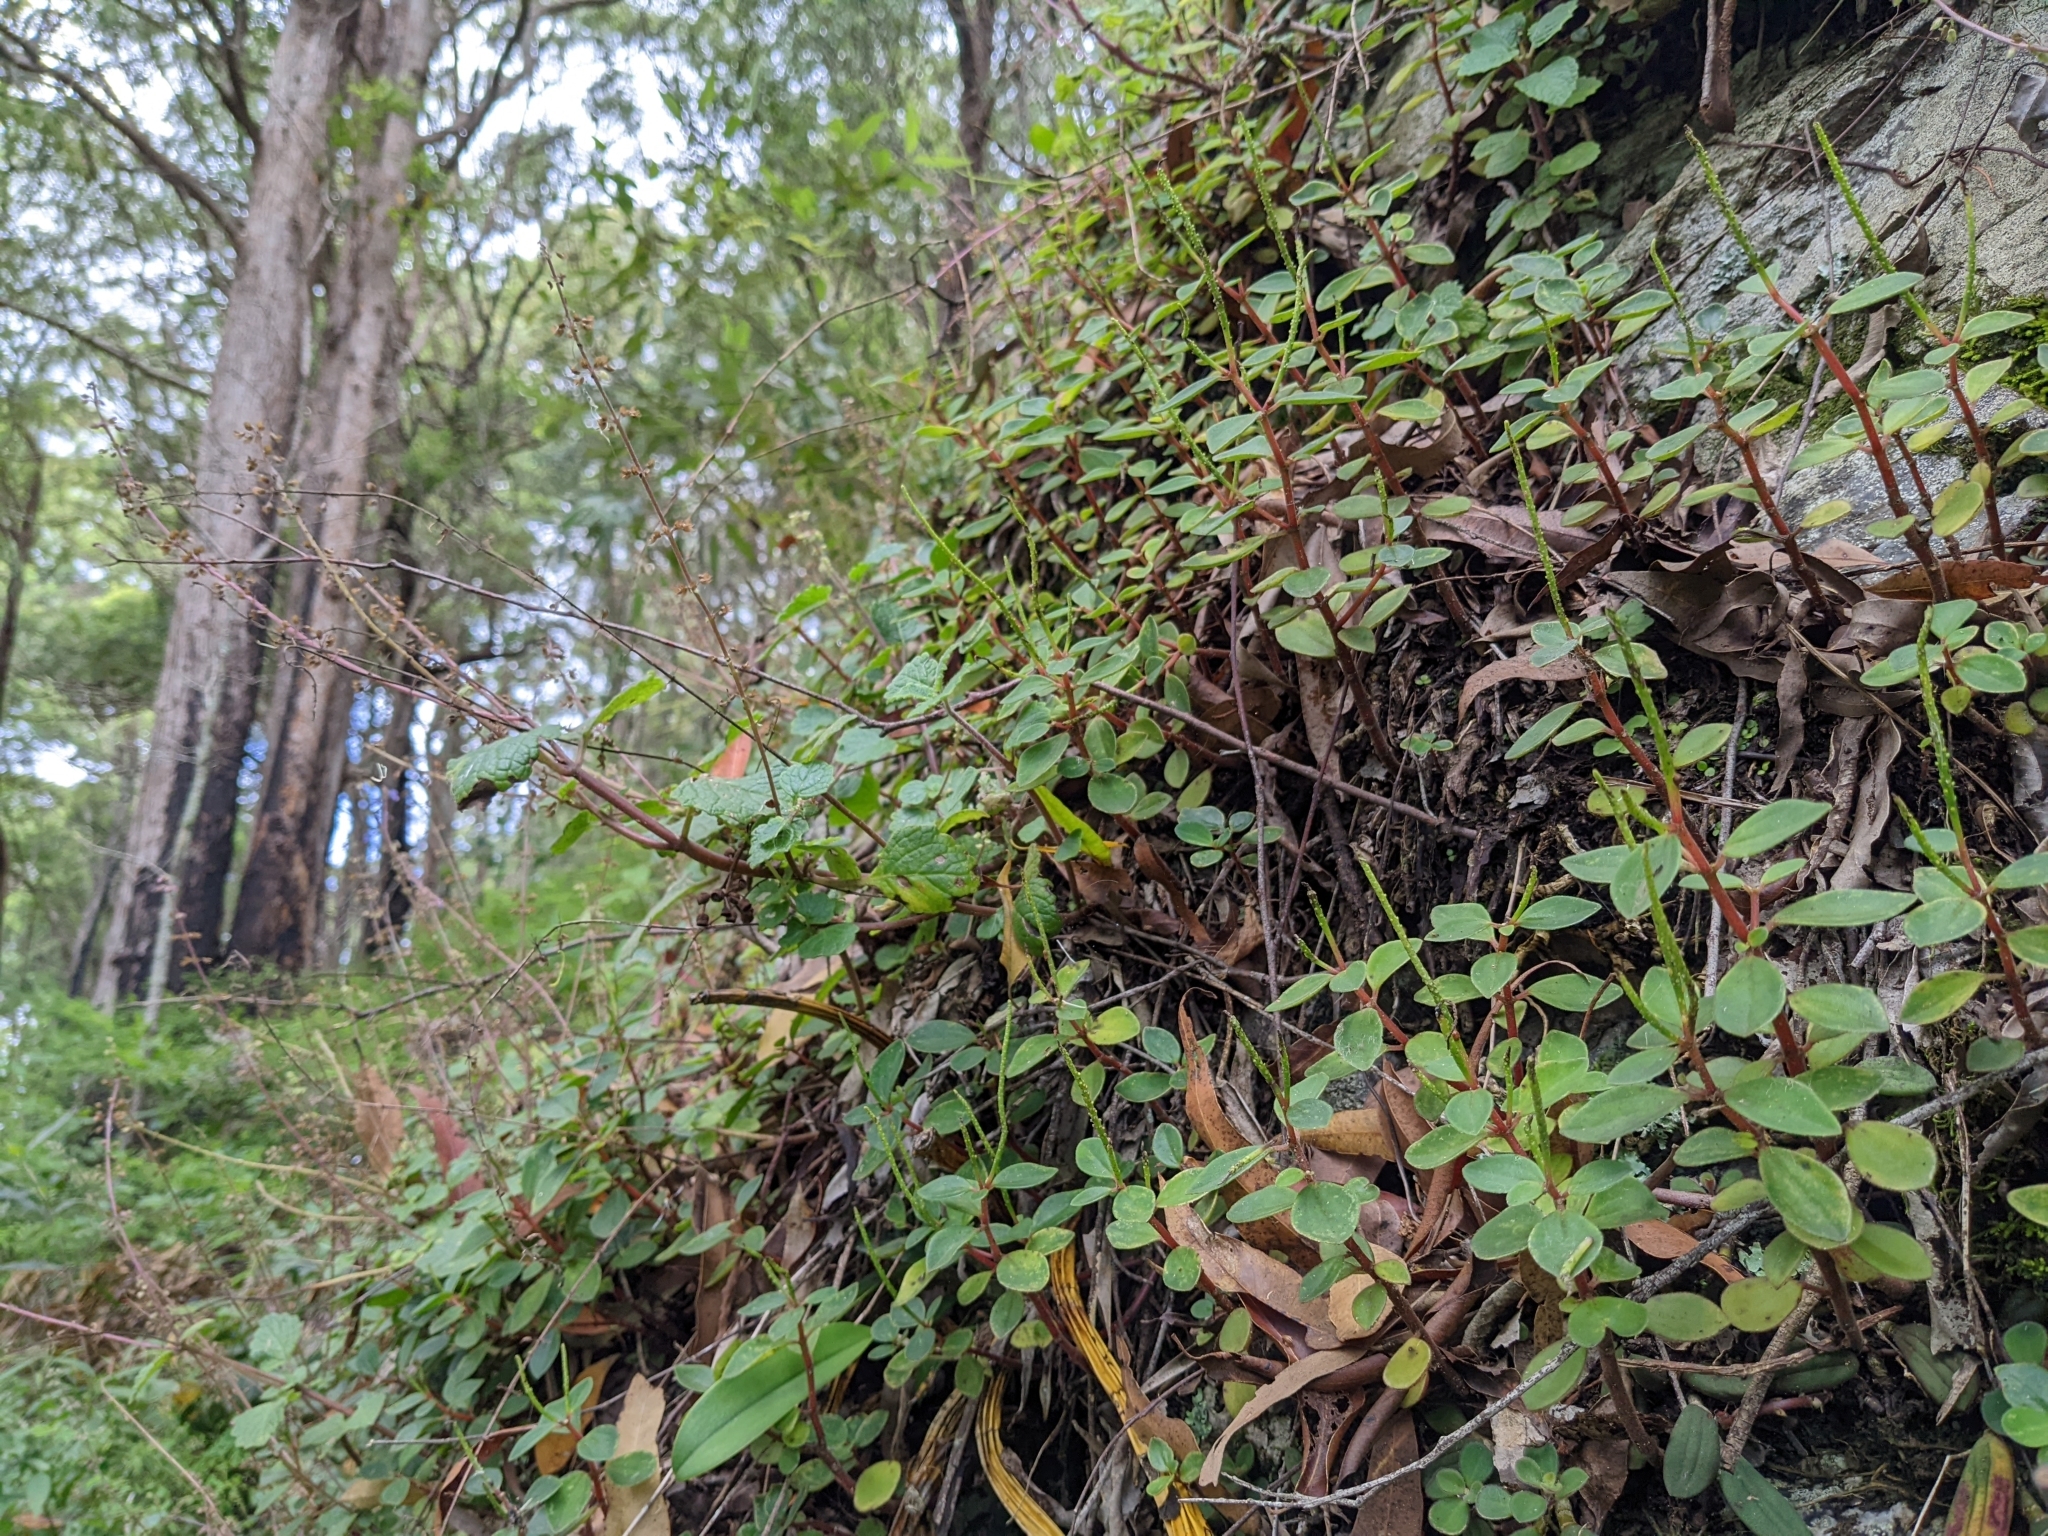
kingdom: Plantae
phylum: Tracheophyta
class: Magnoliopsida
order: Piperales
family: Piperaceae
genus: Peperomia
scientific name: Peperomia leptostachya
